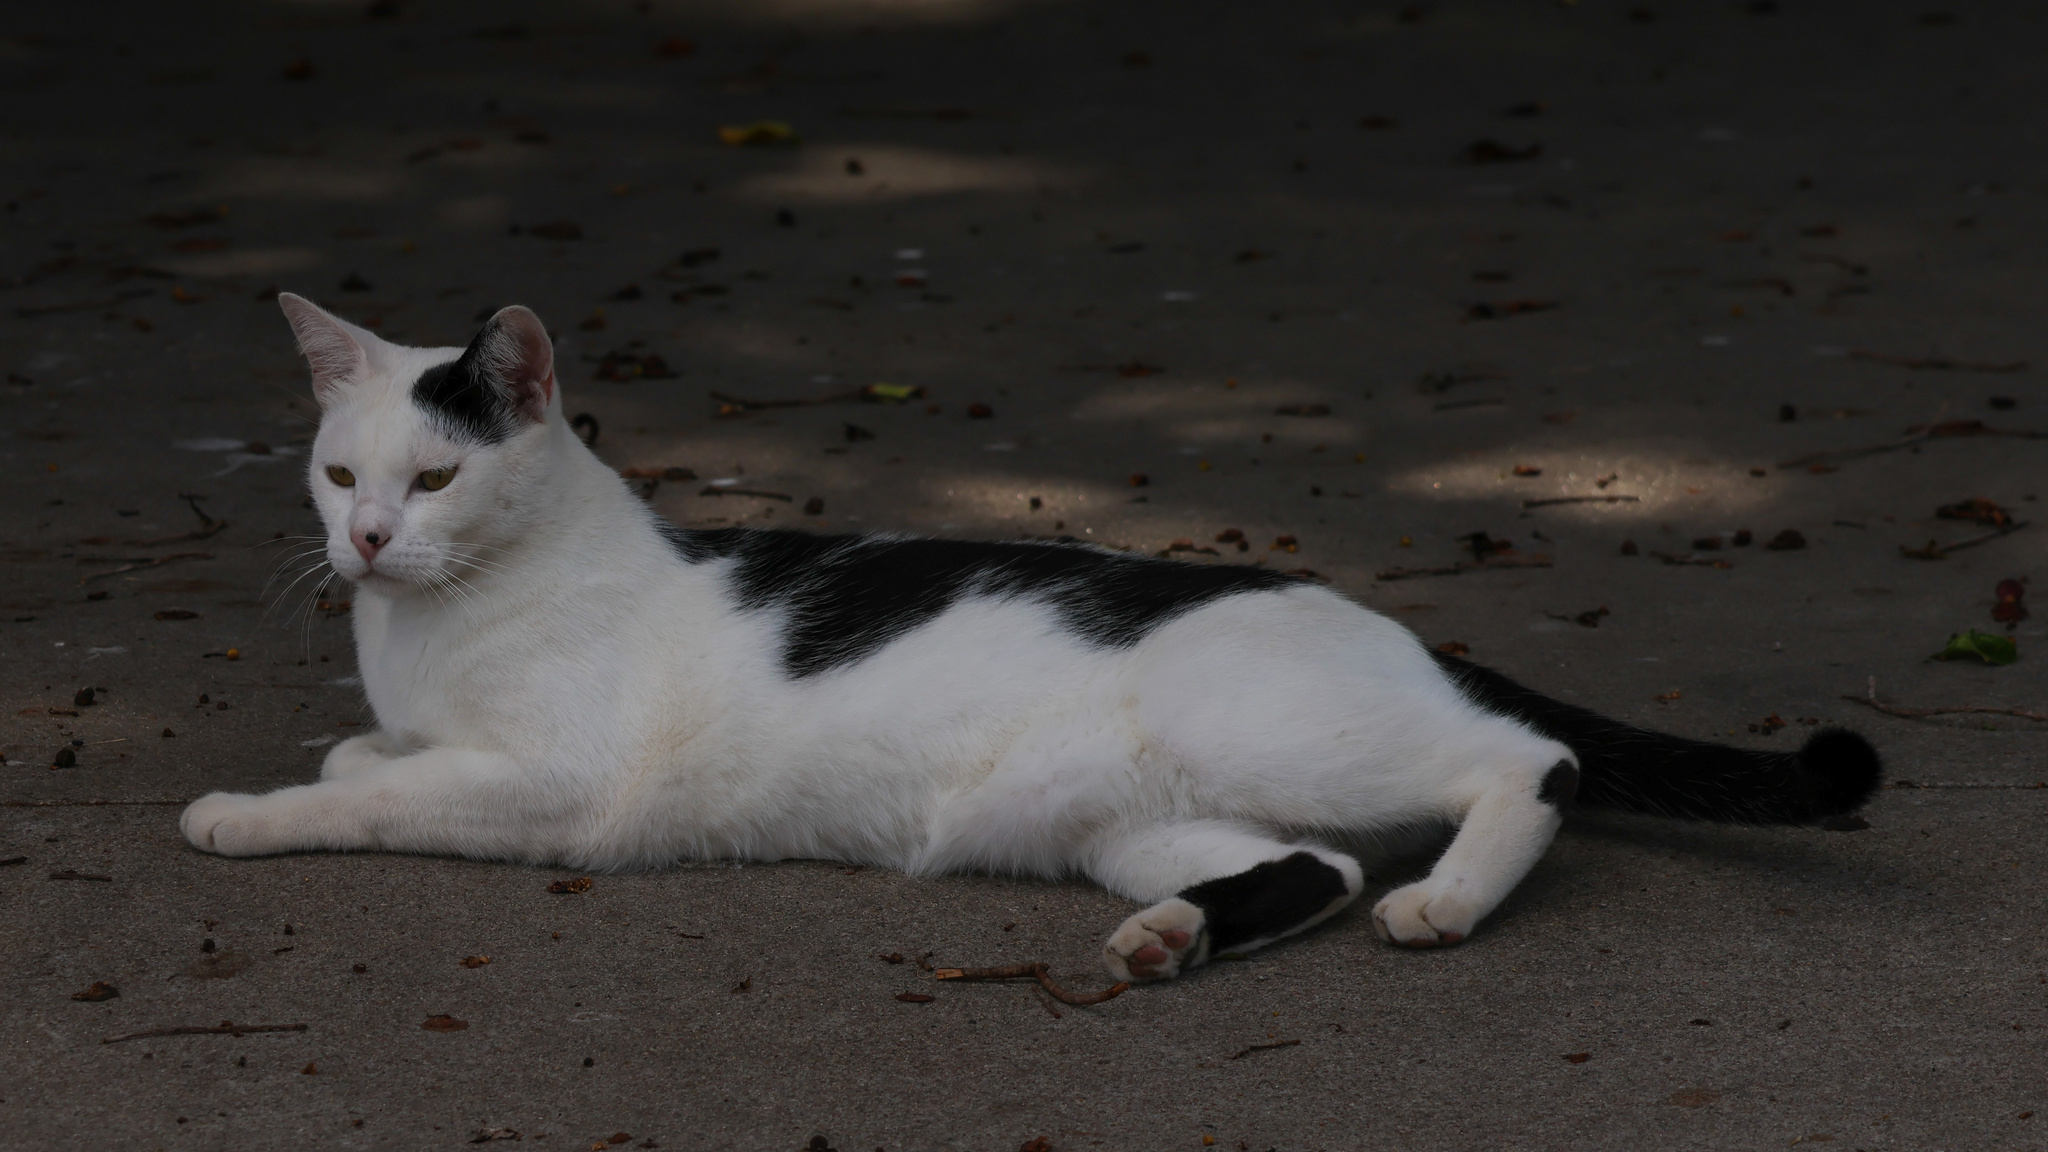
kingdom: Animalia
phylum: Chordata
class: Mammalia
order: Carnivora
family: Felidae
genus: Felis
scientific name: Felis catus
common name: Domestic cat
